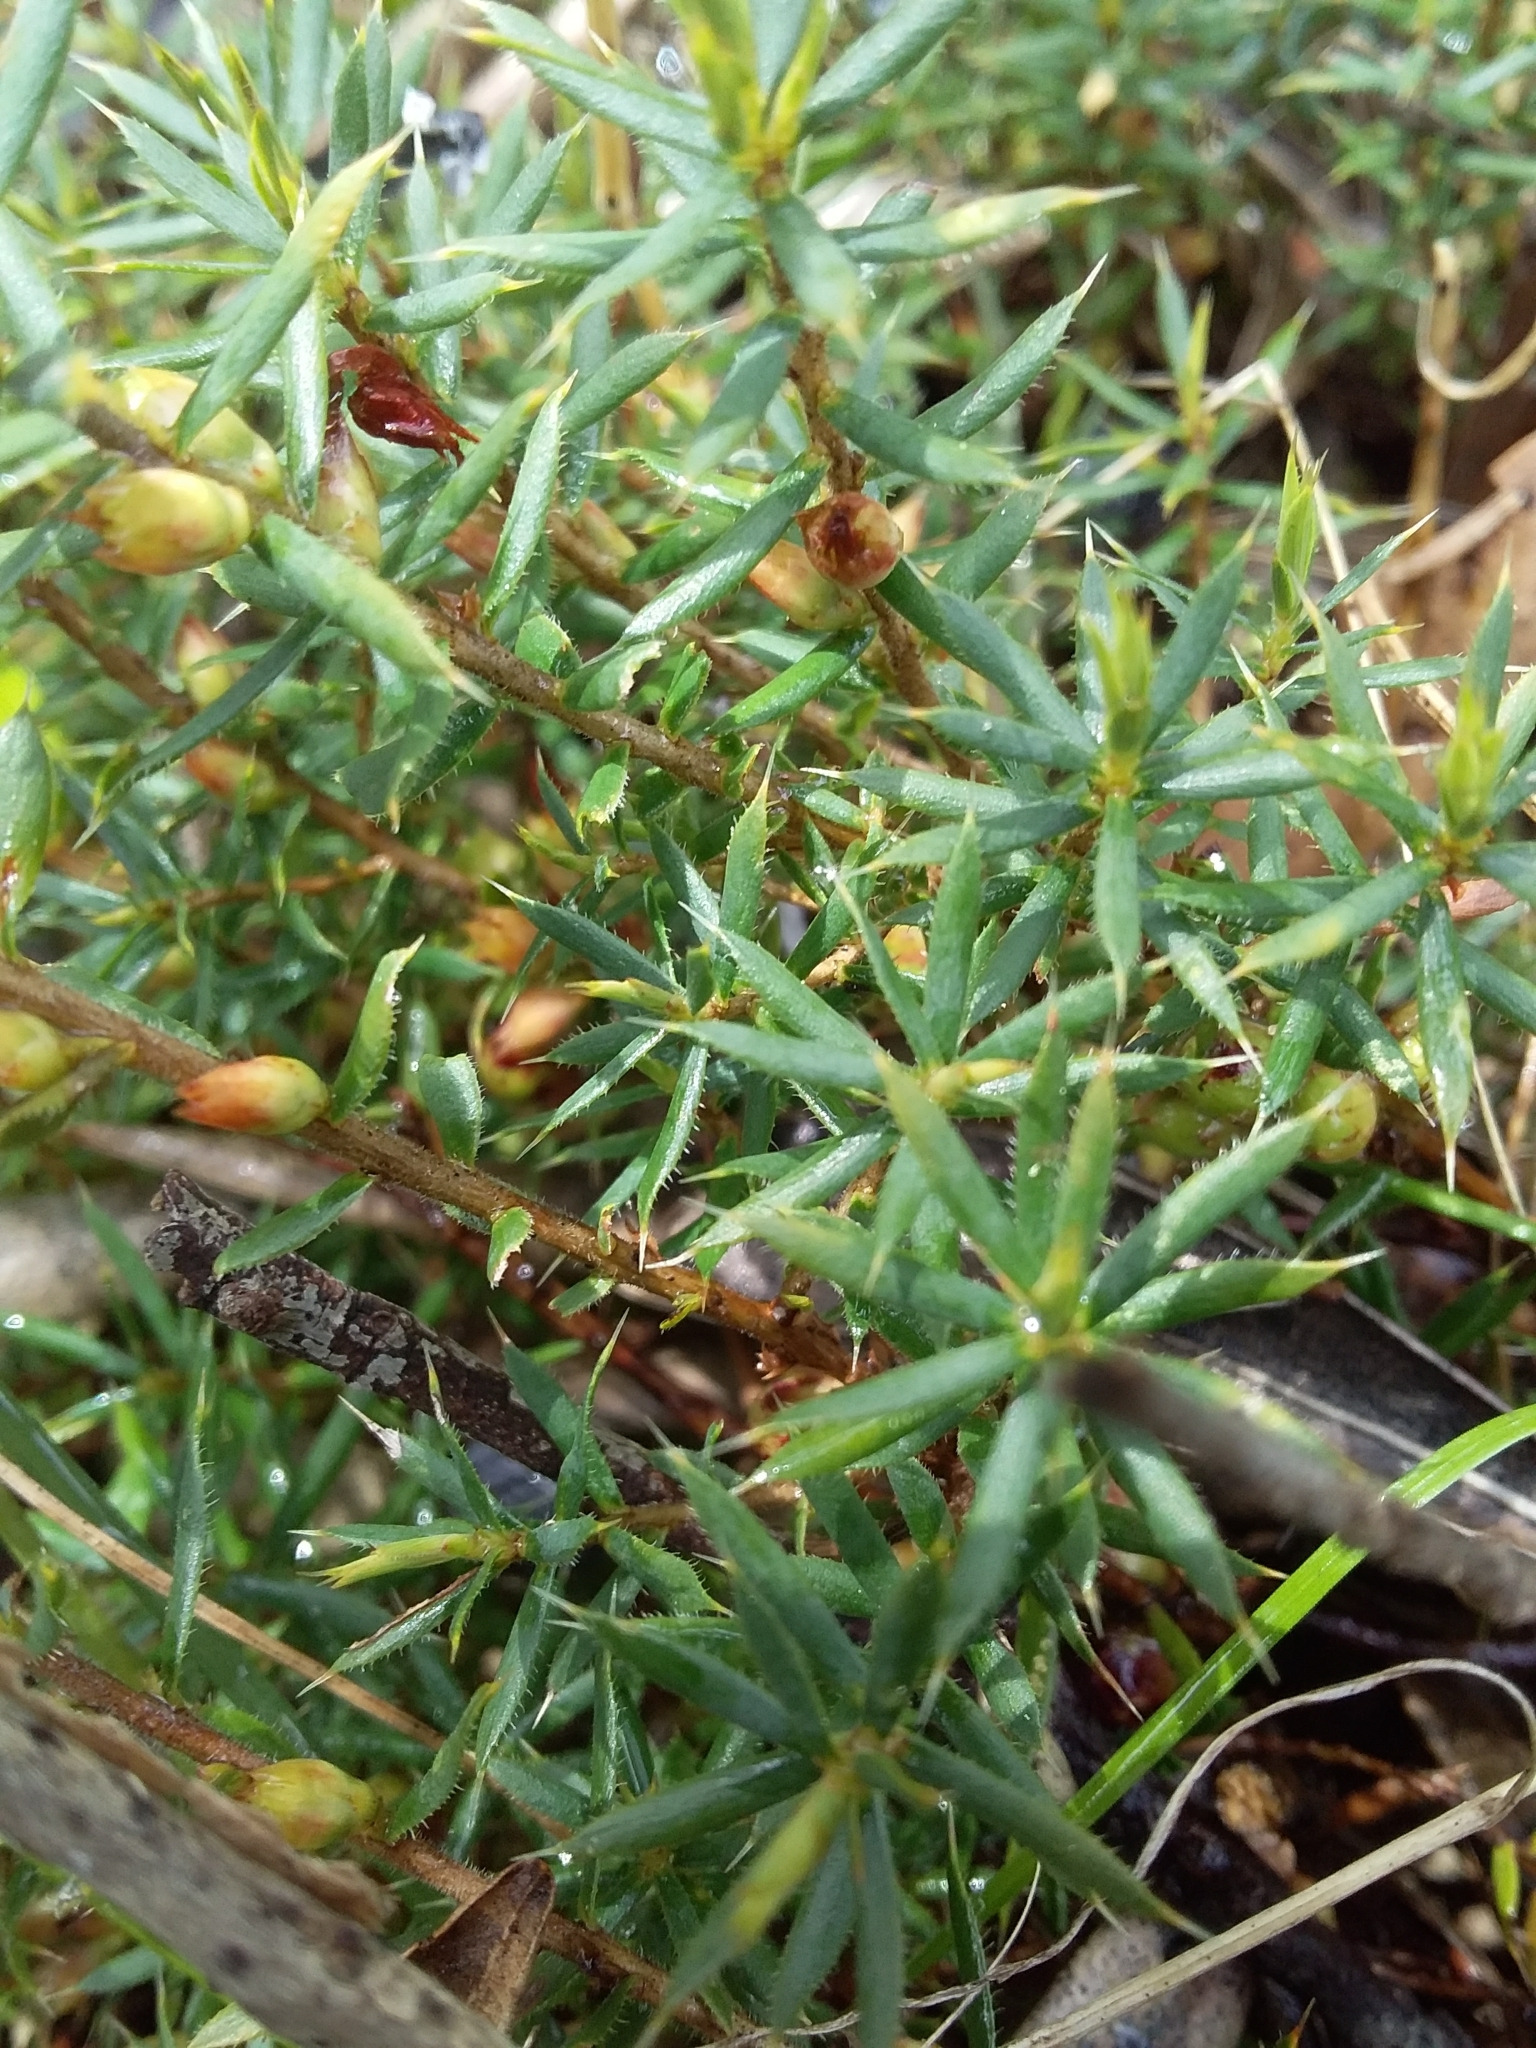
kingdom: Plantae
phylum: Tracheophyta
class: Magnoliopsida
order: Ericales
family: Ericaceae
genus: Styphelia
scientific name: Styphelia humifusa
